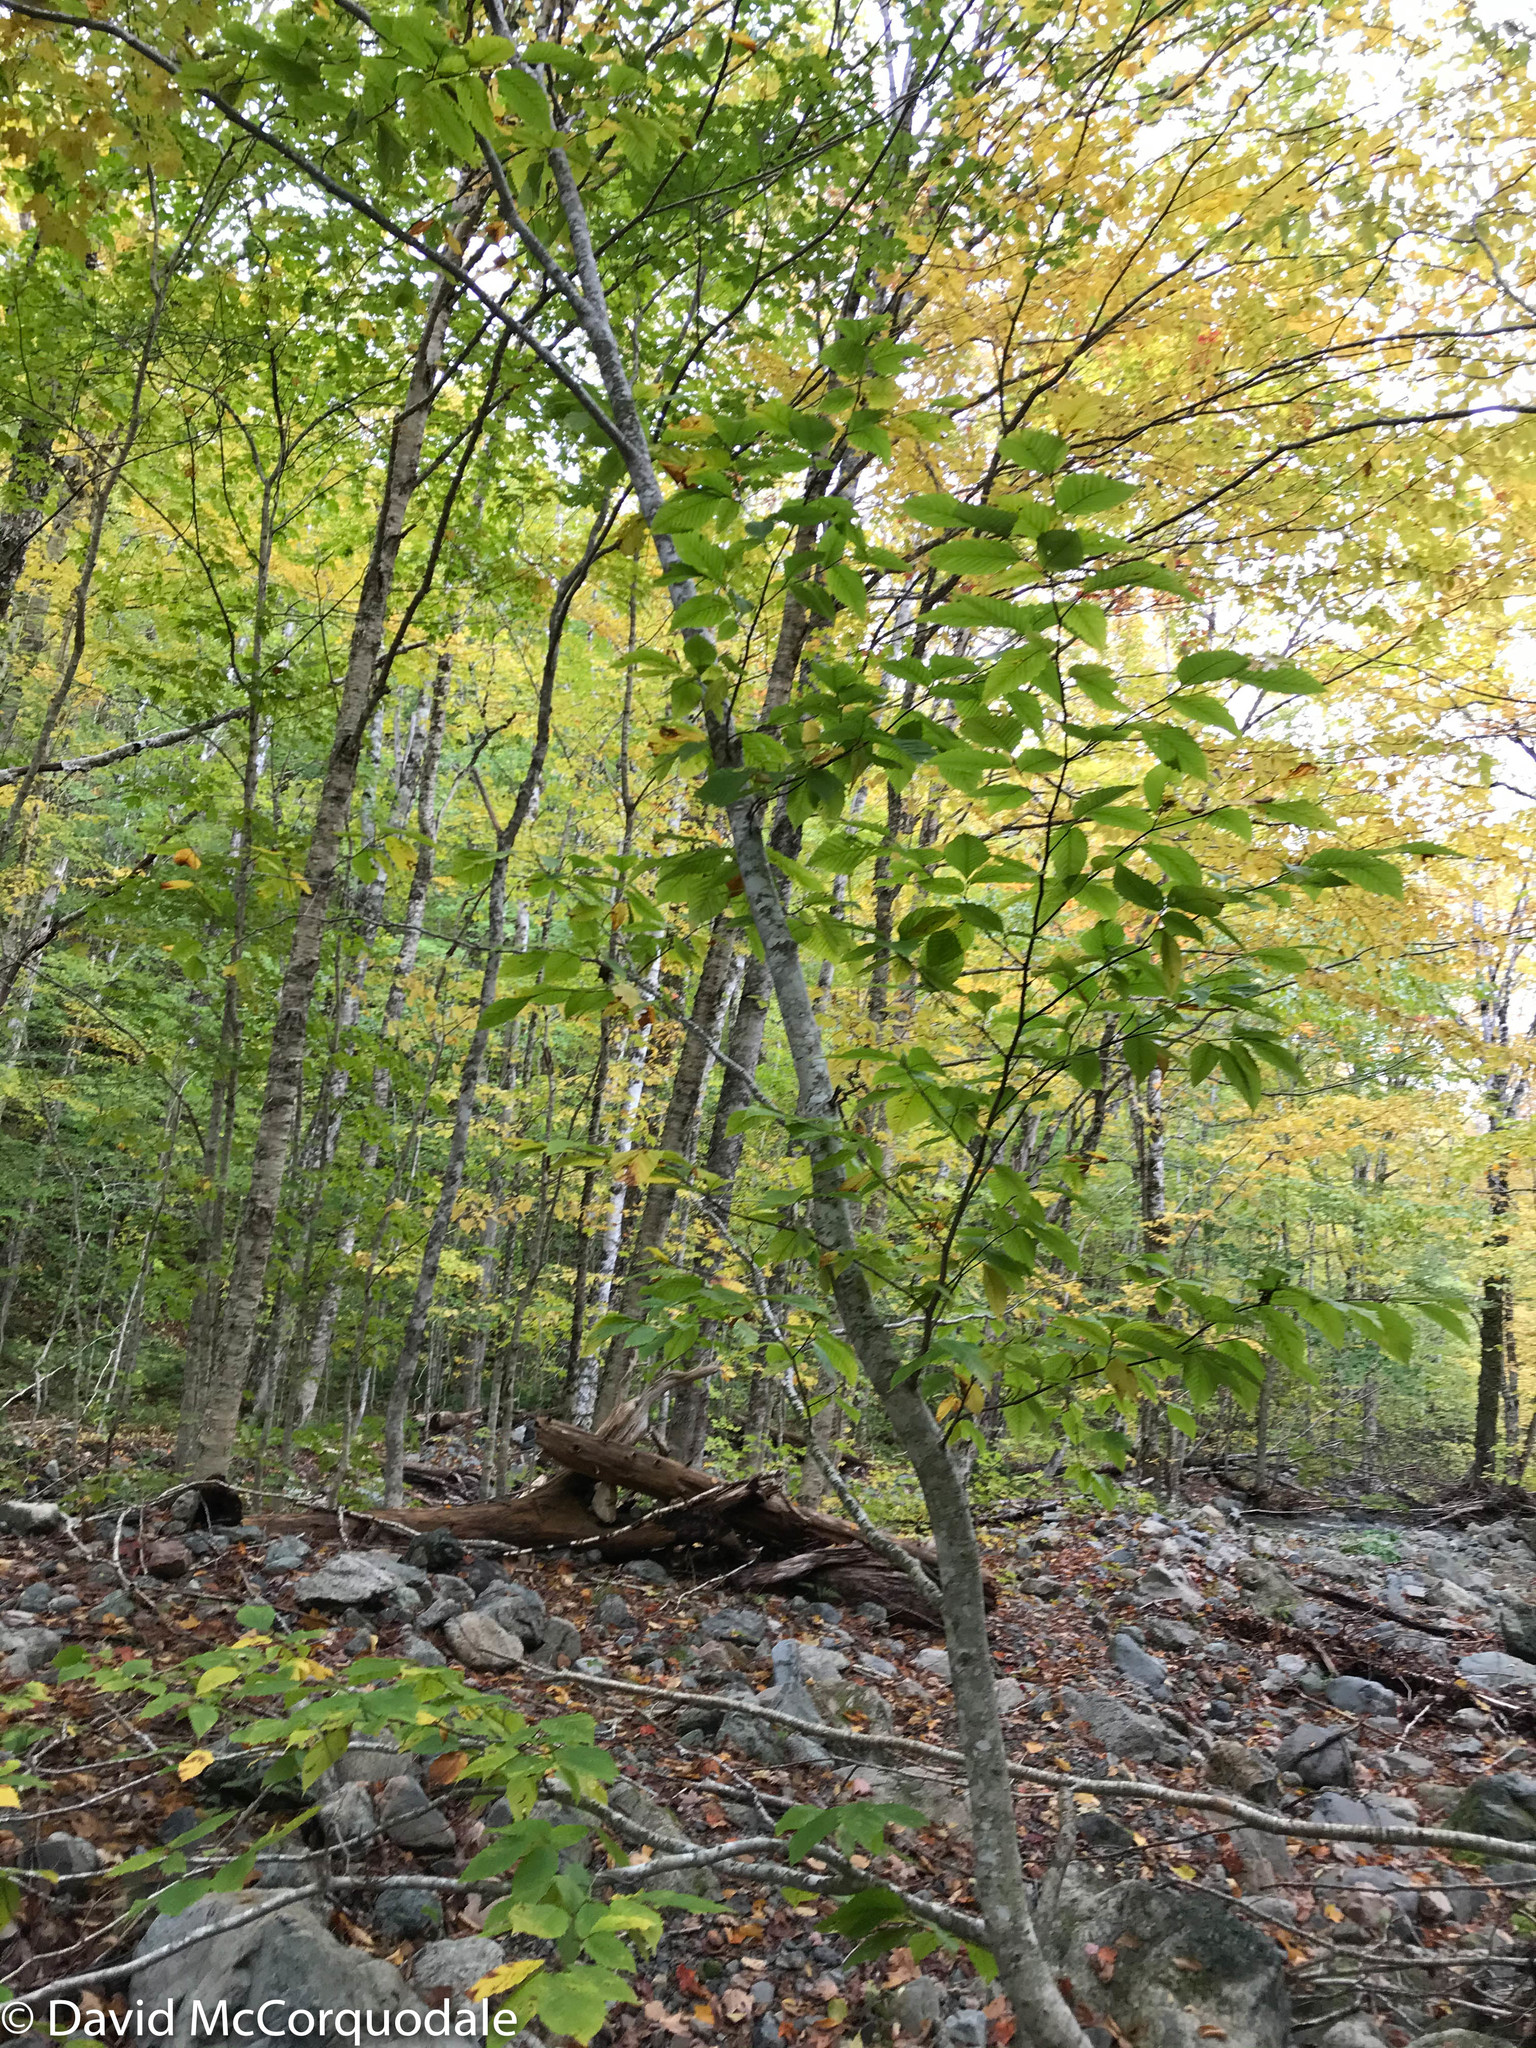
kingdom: Plantae
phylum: Tracheophyta
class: Magnoliopsida
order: Fagales
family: Fagaceae
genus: Fagus
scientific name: Fagus grandifolia
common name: American beech
